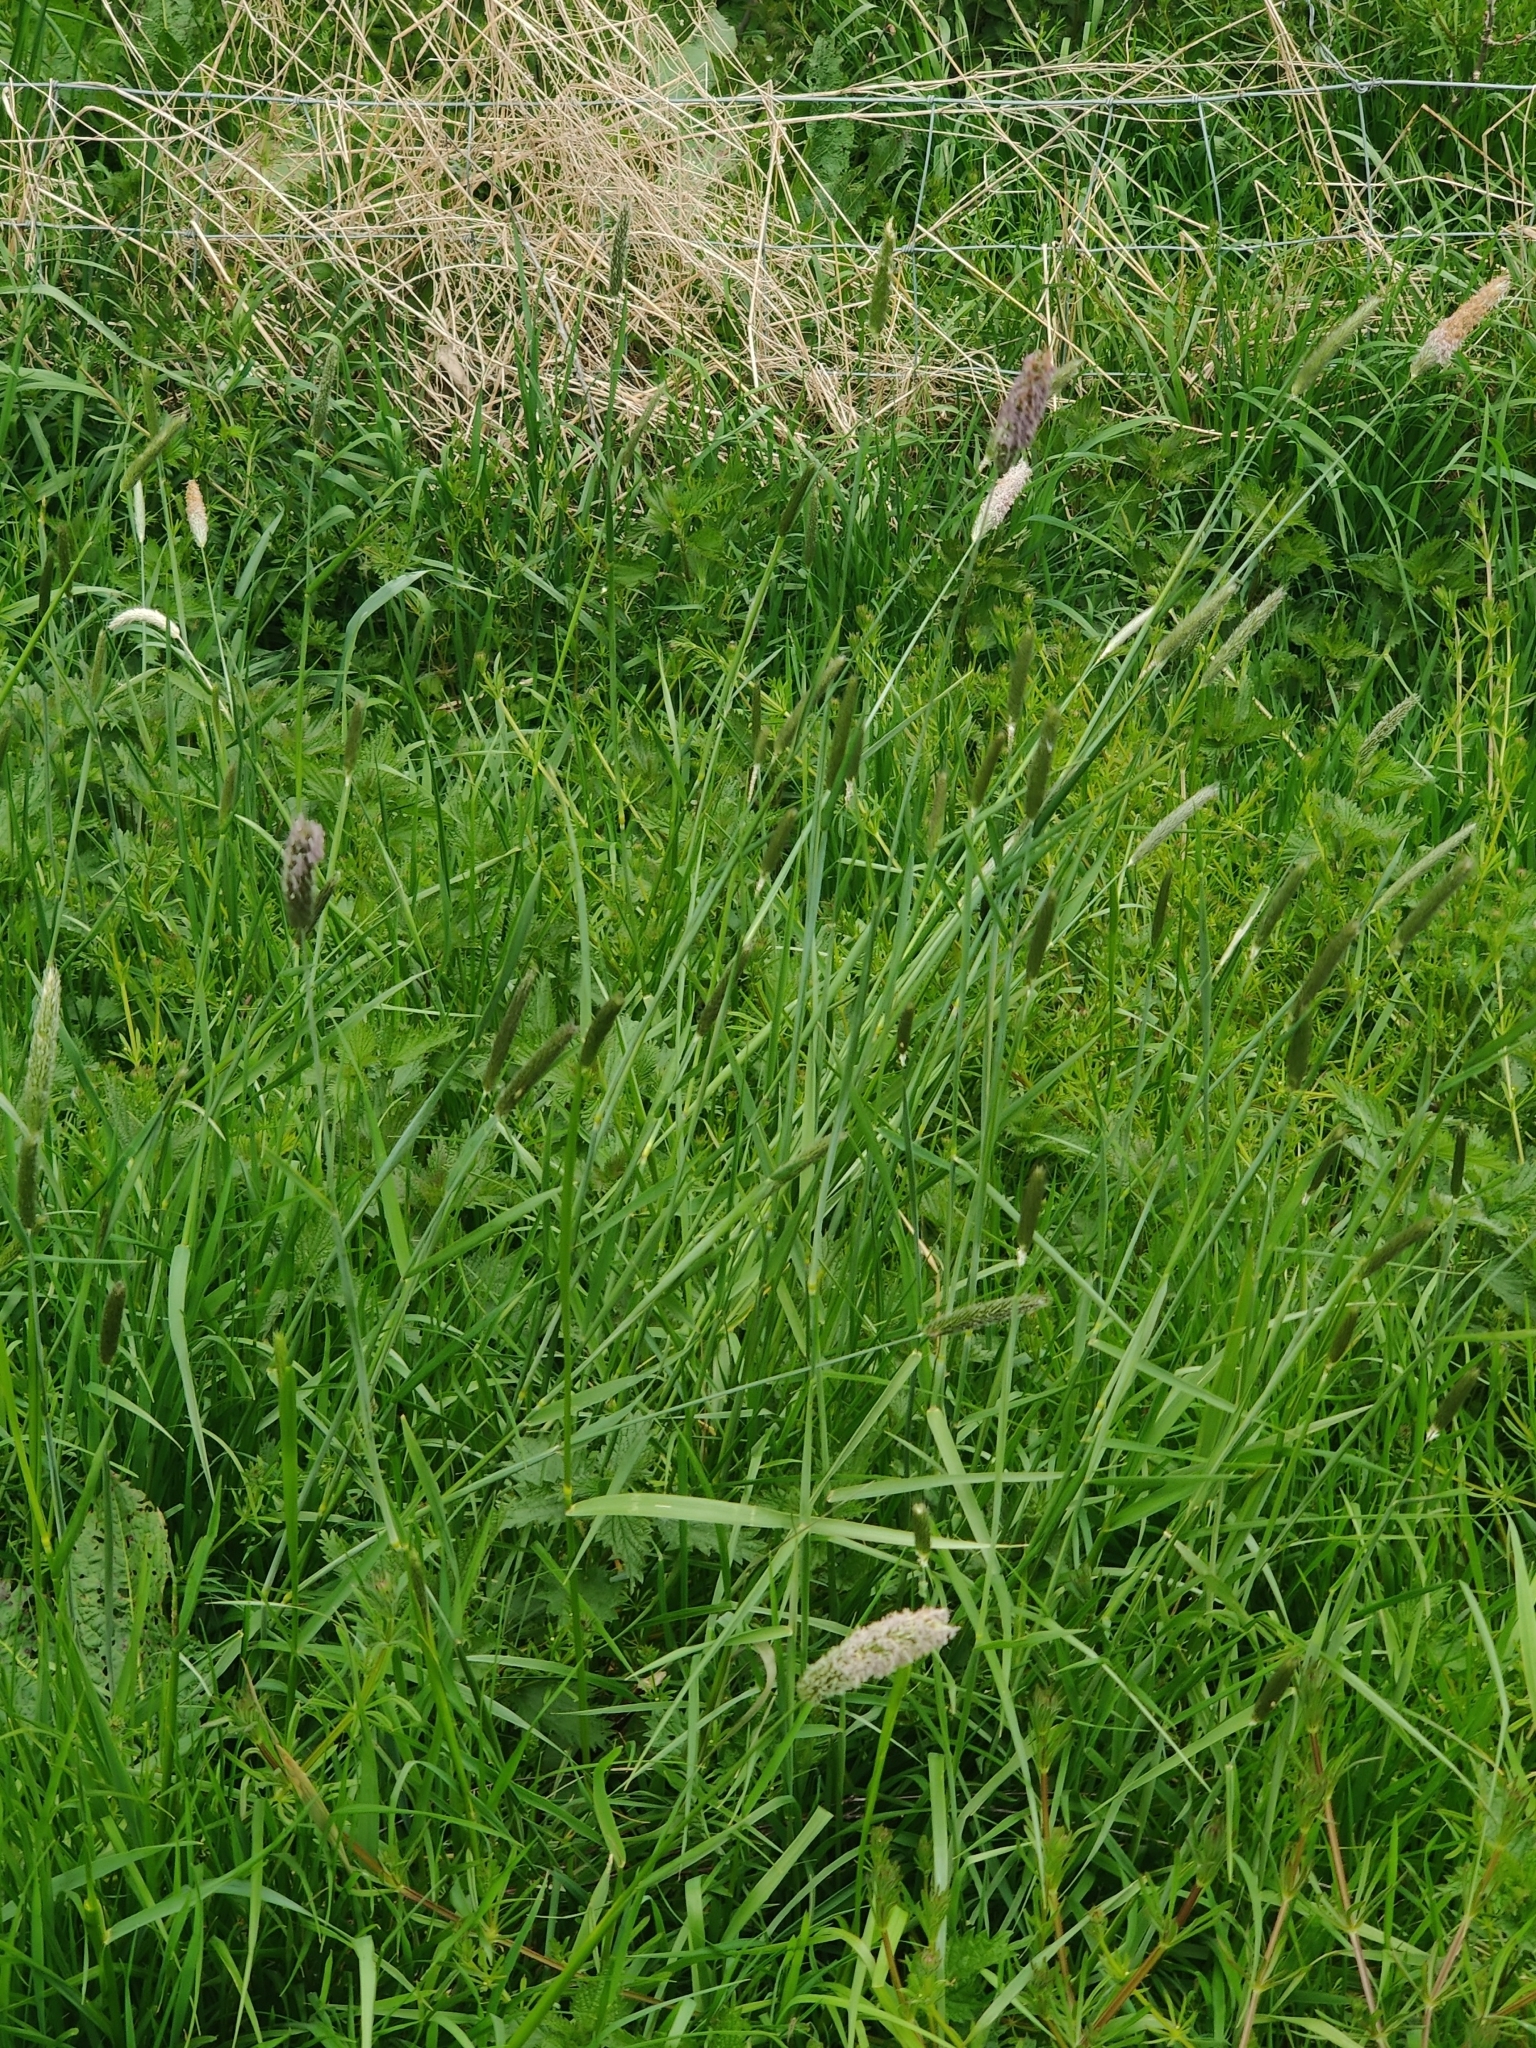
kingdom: Plantae
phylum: Tracheophyta
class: Liliopsida
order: Poales
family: Poaceae
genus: Alopecurus
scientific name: Alopecurus pratensis
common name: Meadow foxtail
